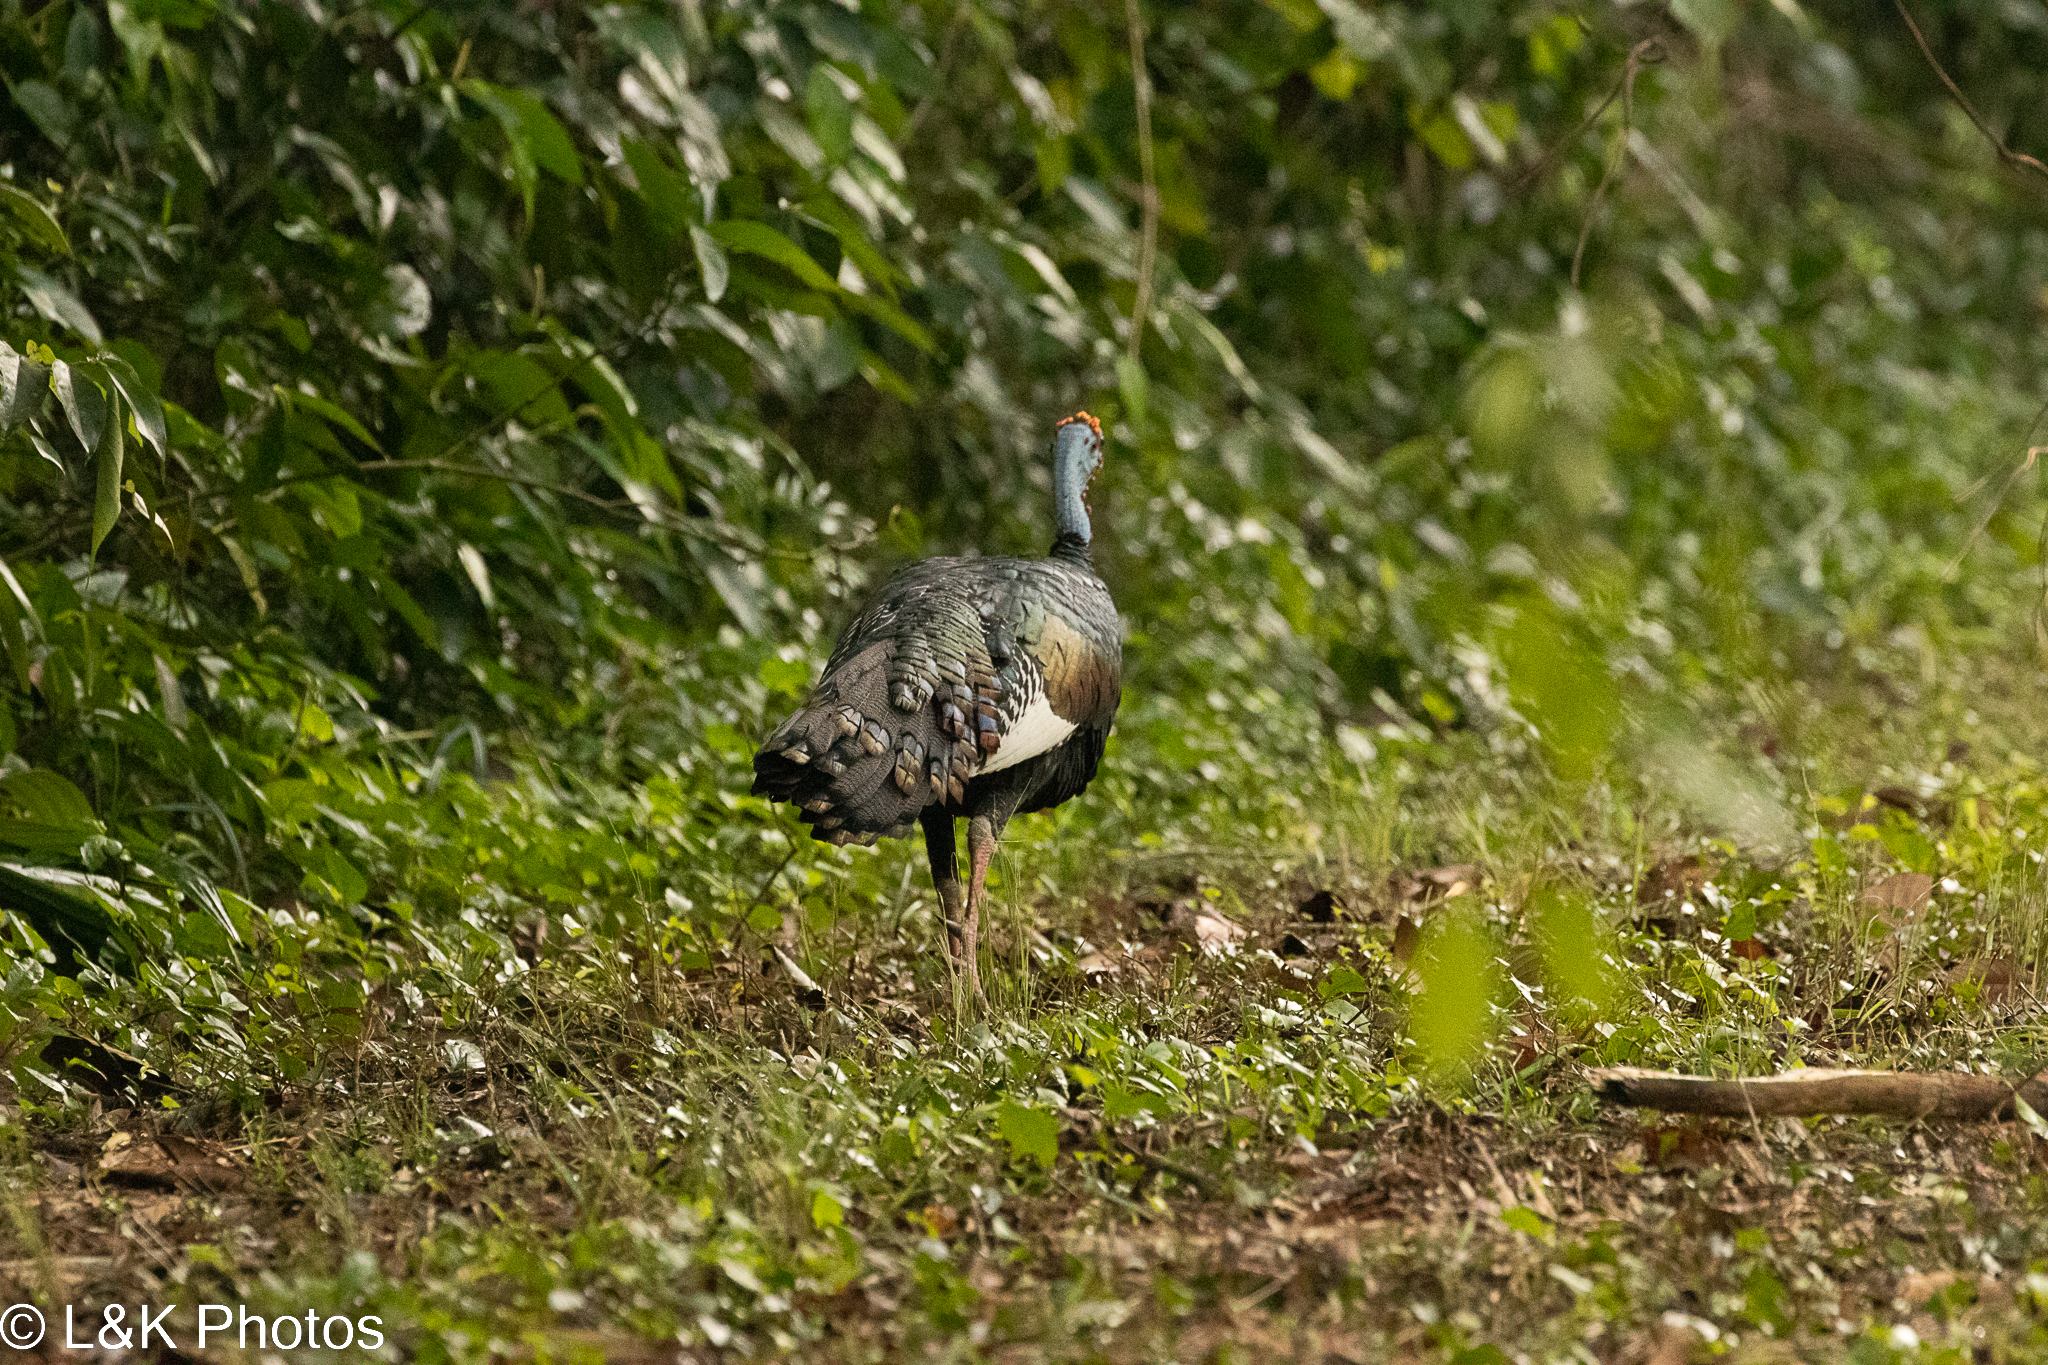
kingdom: Animalia
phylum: Chordata
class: Aves
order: Galliformes
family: Phasianidae
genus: Meleagris
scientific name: Meleagris ocellata
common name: Ocellated turkey
